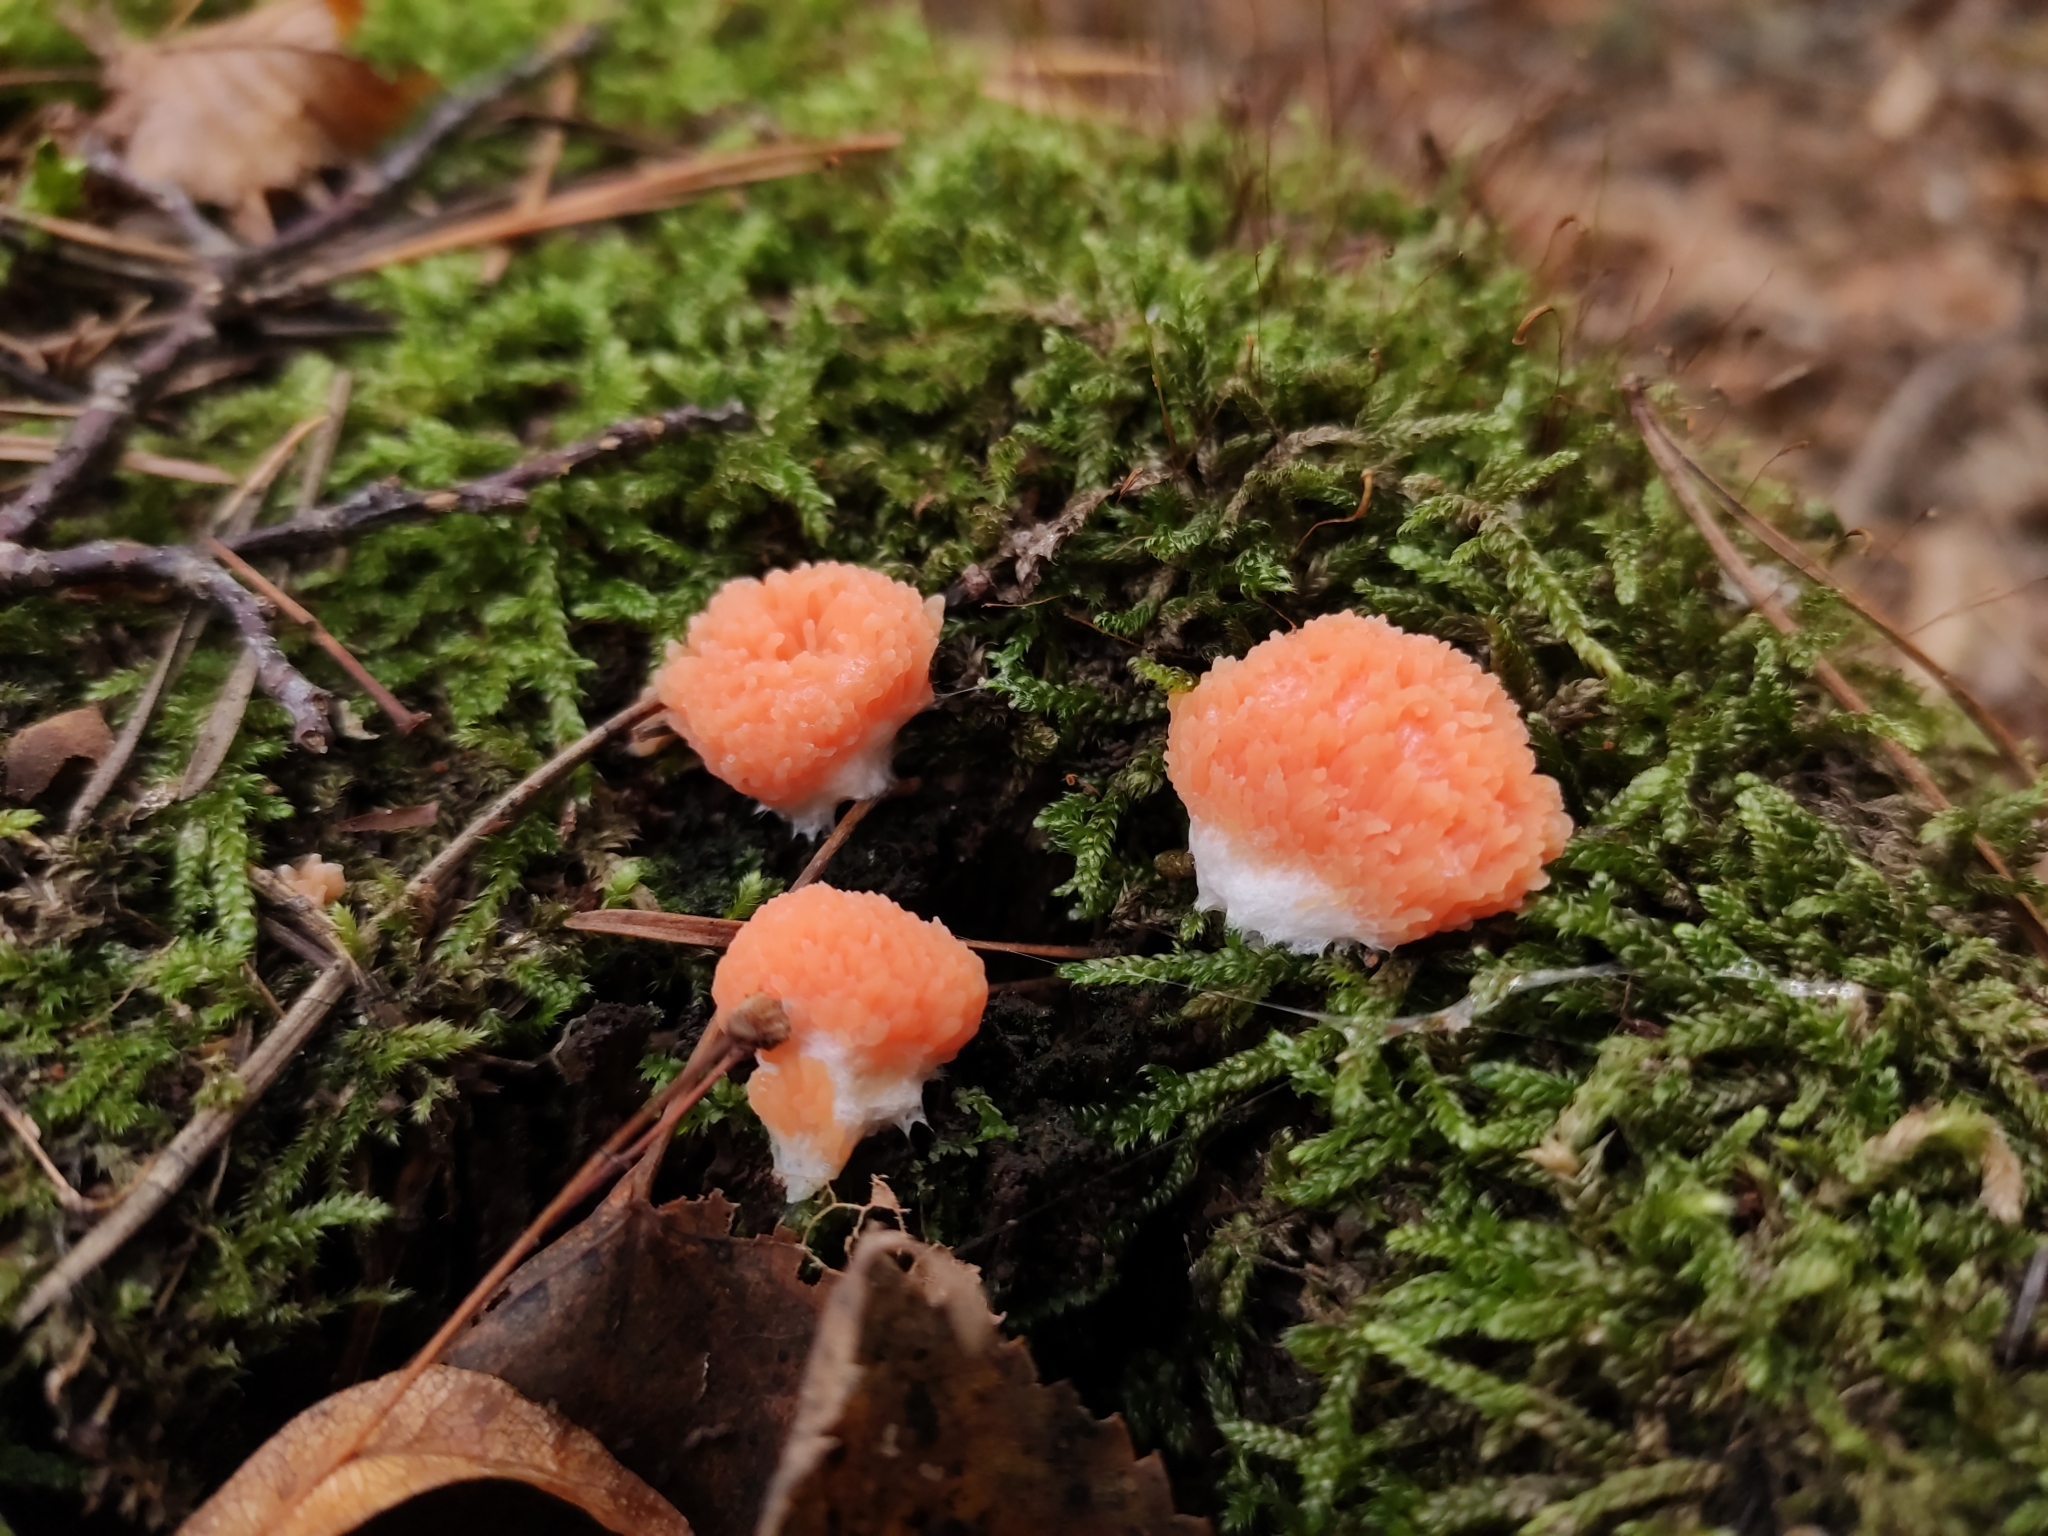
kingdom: Protozoa
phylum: Mycetozoa
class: Myxomycetes
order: Cribrariales
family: Tubiferaceae
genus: Tubifera
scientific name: Tubifera ferruginosa
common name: Red raspberry slime mold
